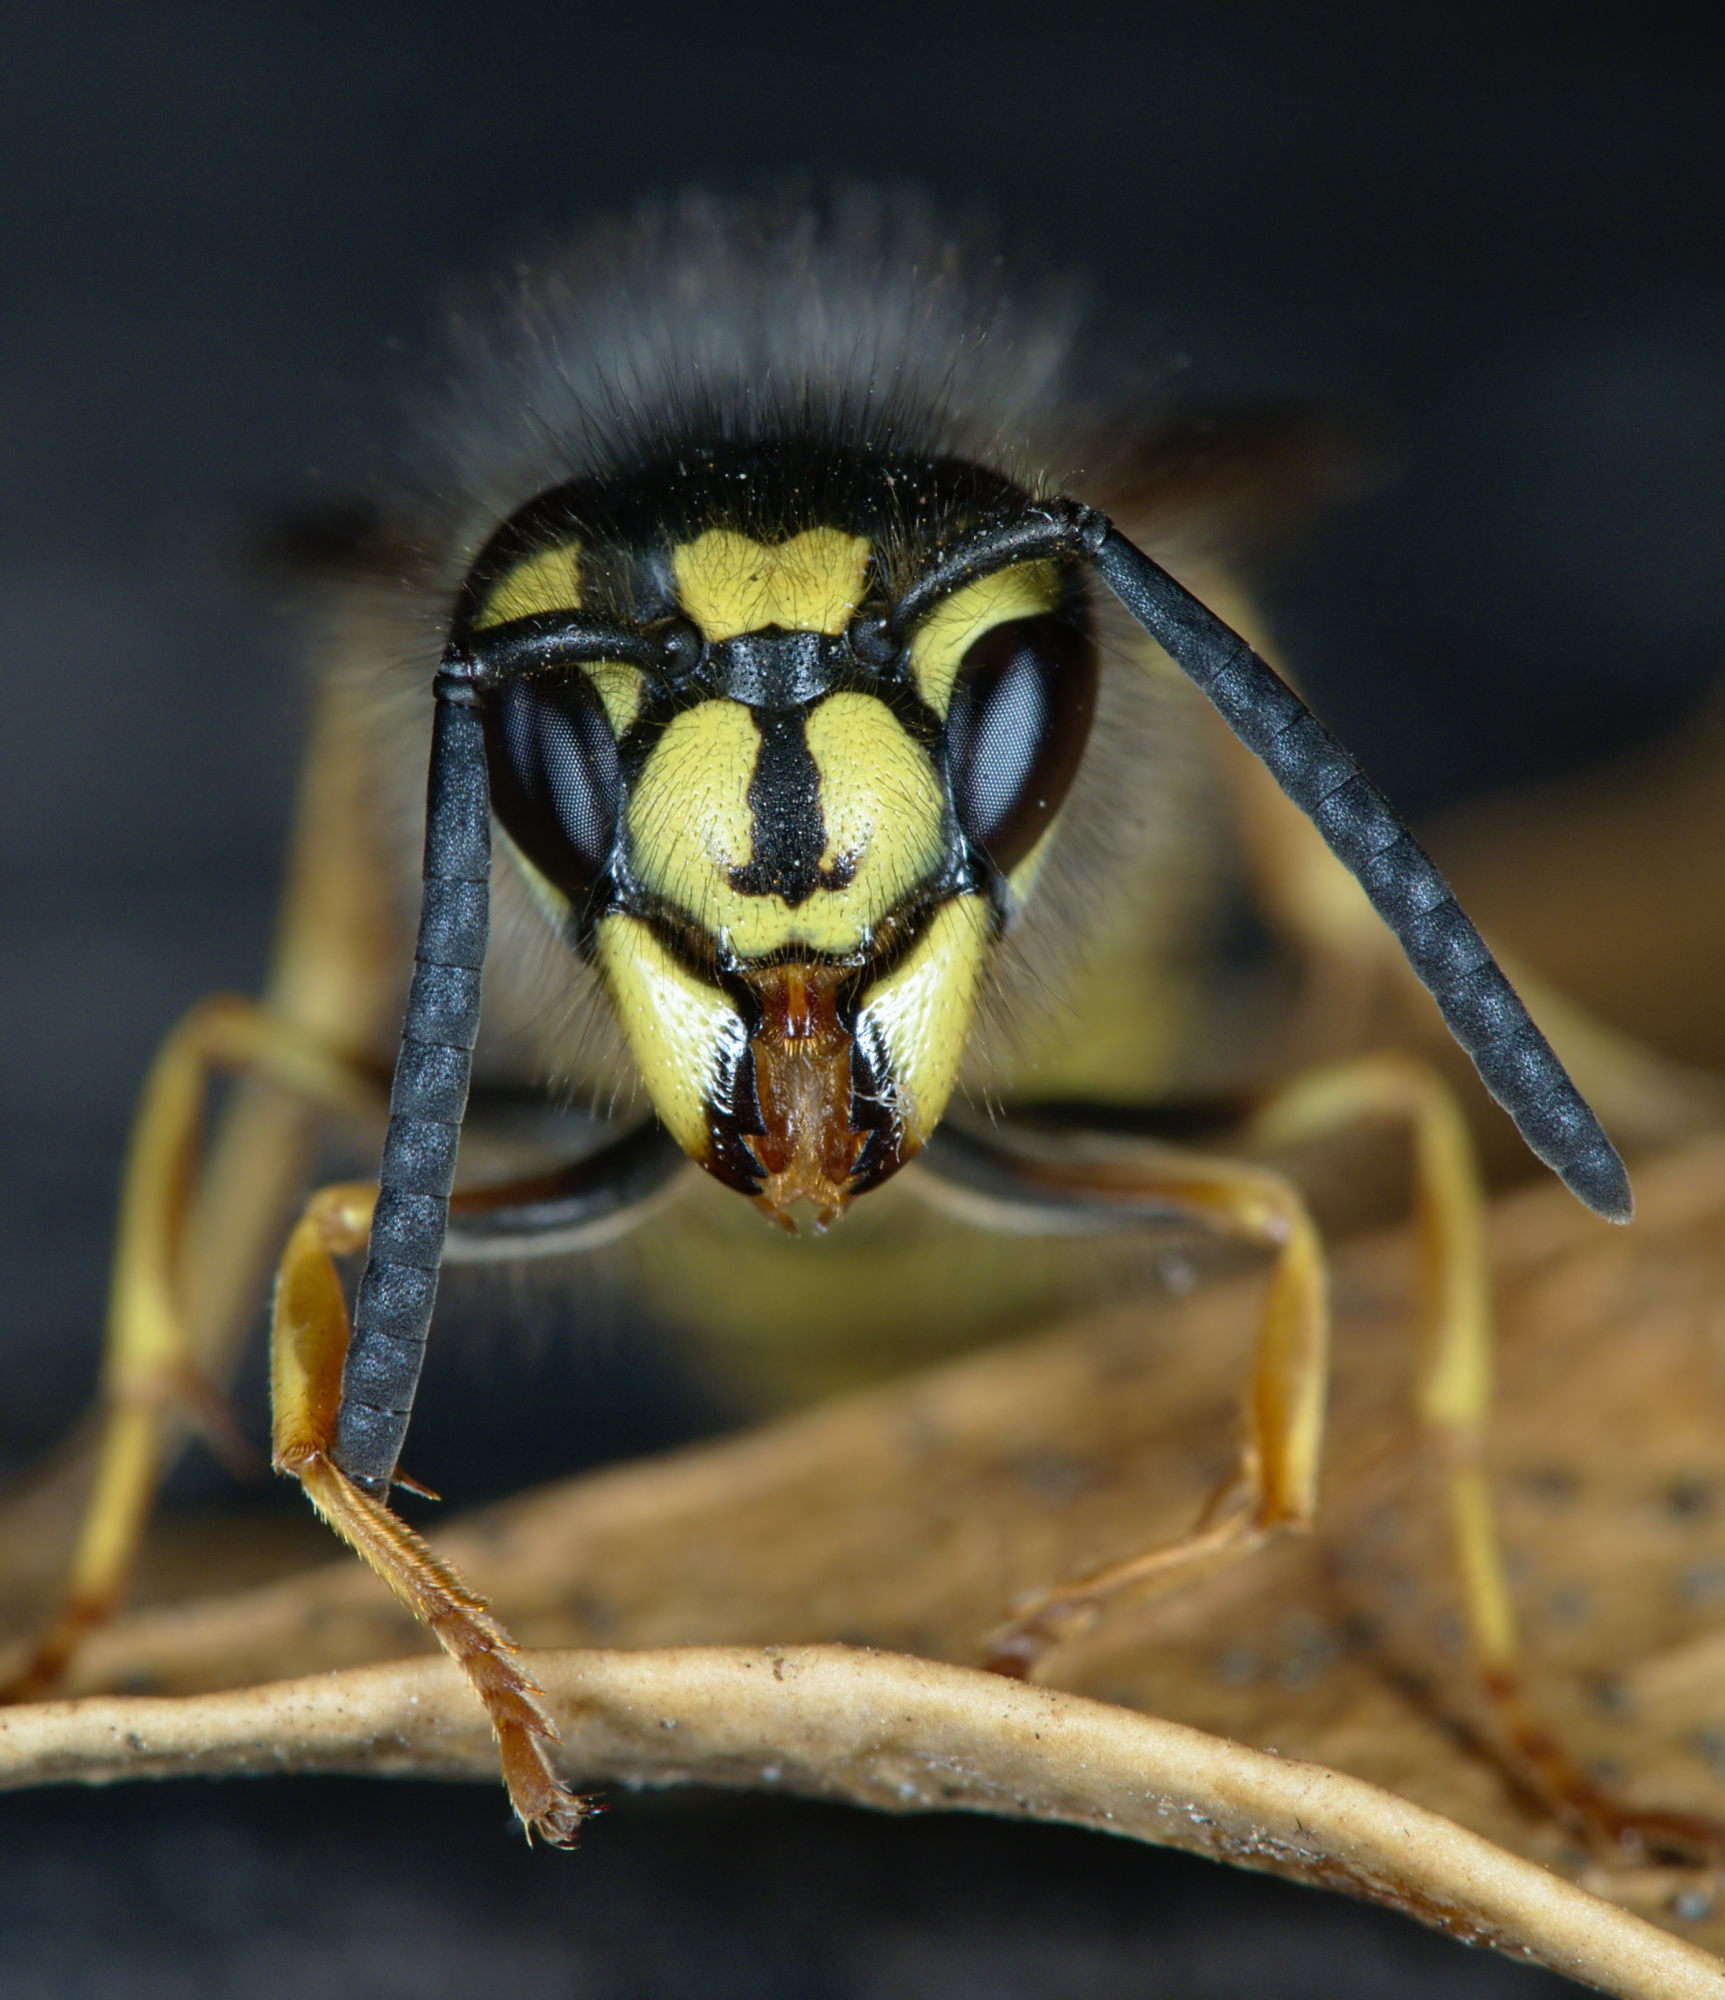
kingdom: Animalia
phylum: Arthropoda
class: Insecta
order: Hymenoptera
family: Vespidae
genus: Vespula
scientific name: Vespula vulgaris
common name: Common wasp
